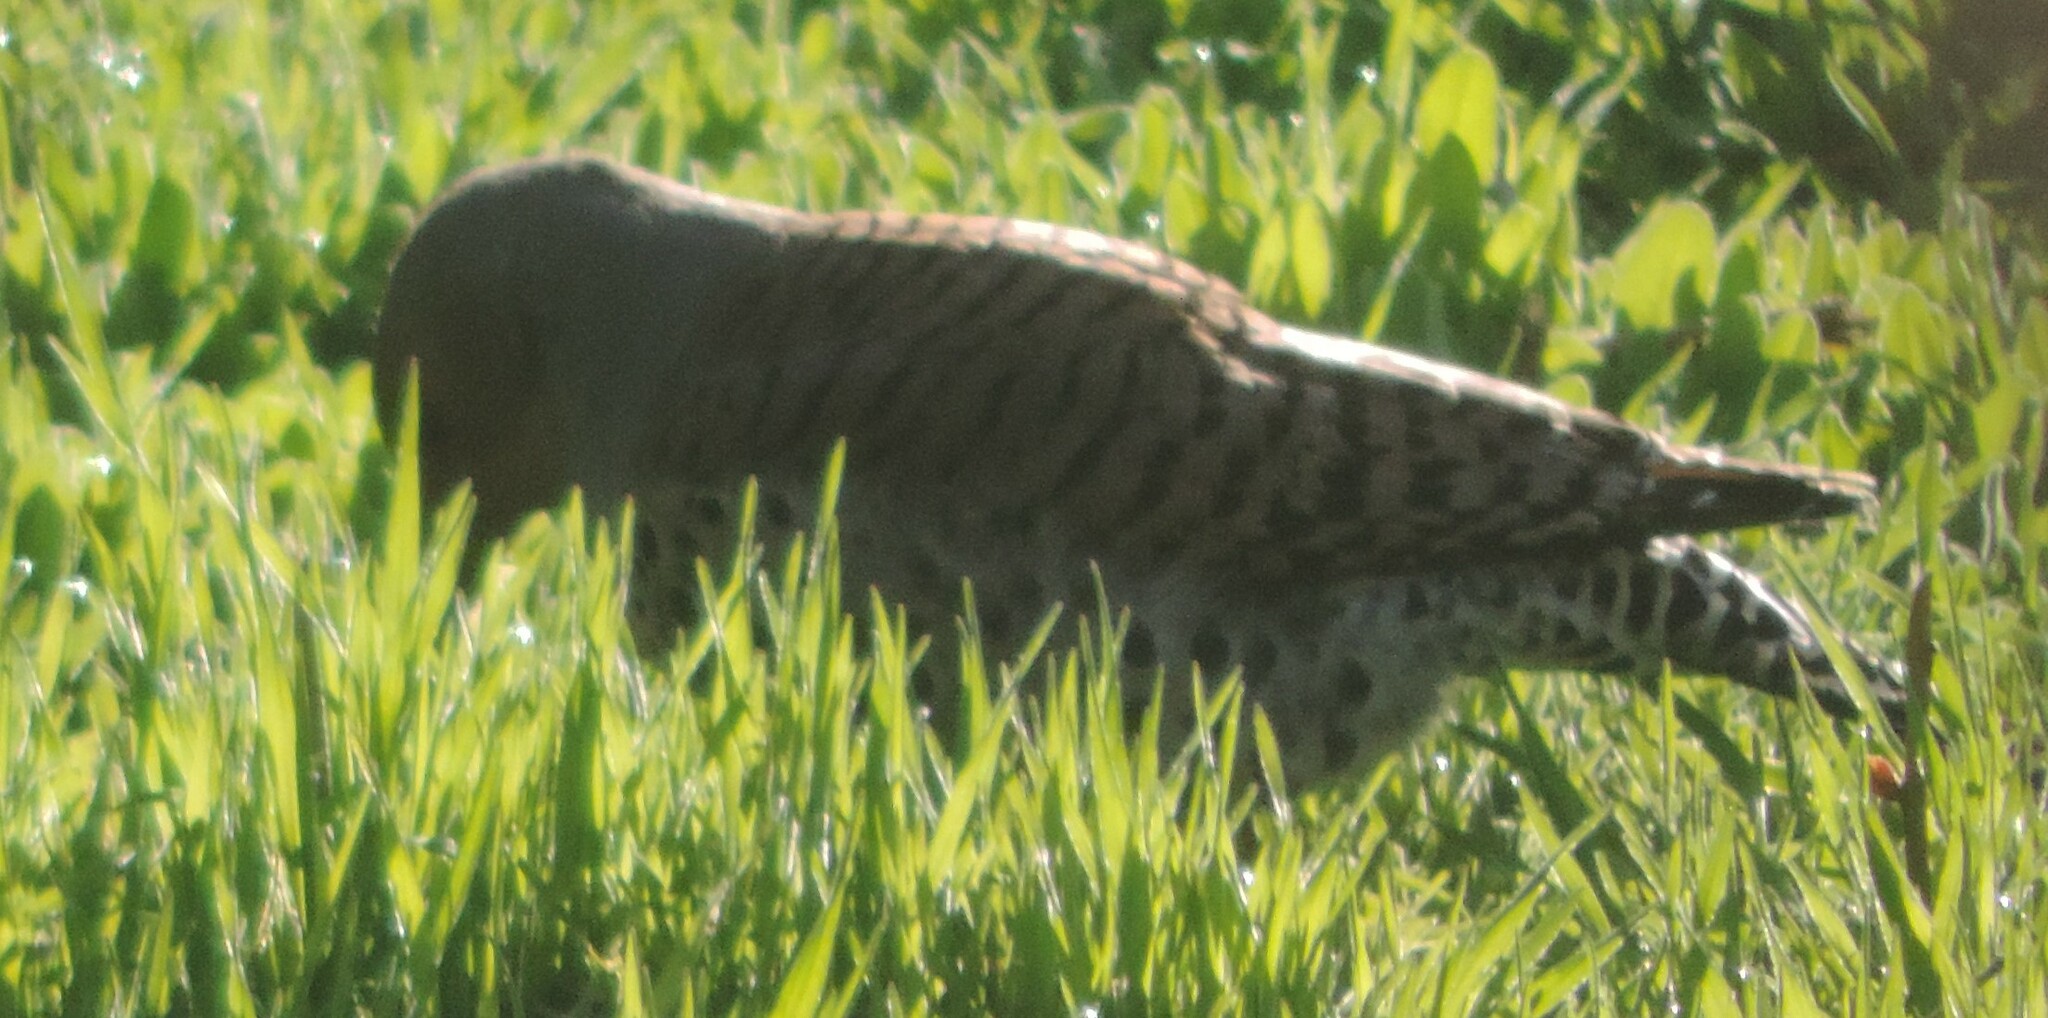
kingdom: Animalia
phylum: Chordata
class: Aves
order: Piciformes
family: Picidae
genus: Colaptes
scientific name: Colaptes auratus
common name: Northern flicker
